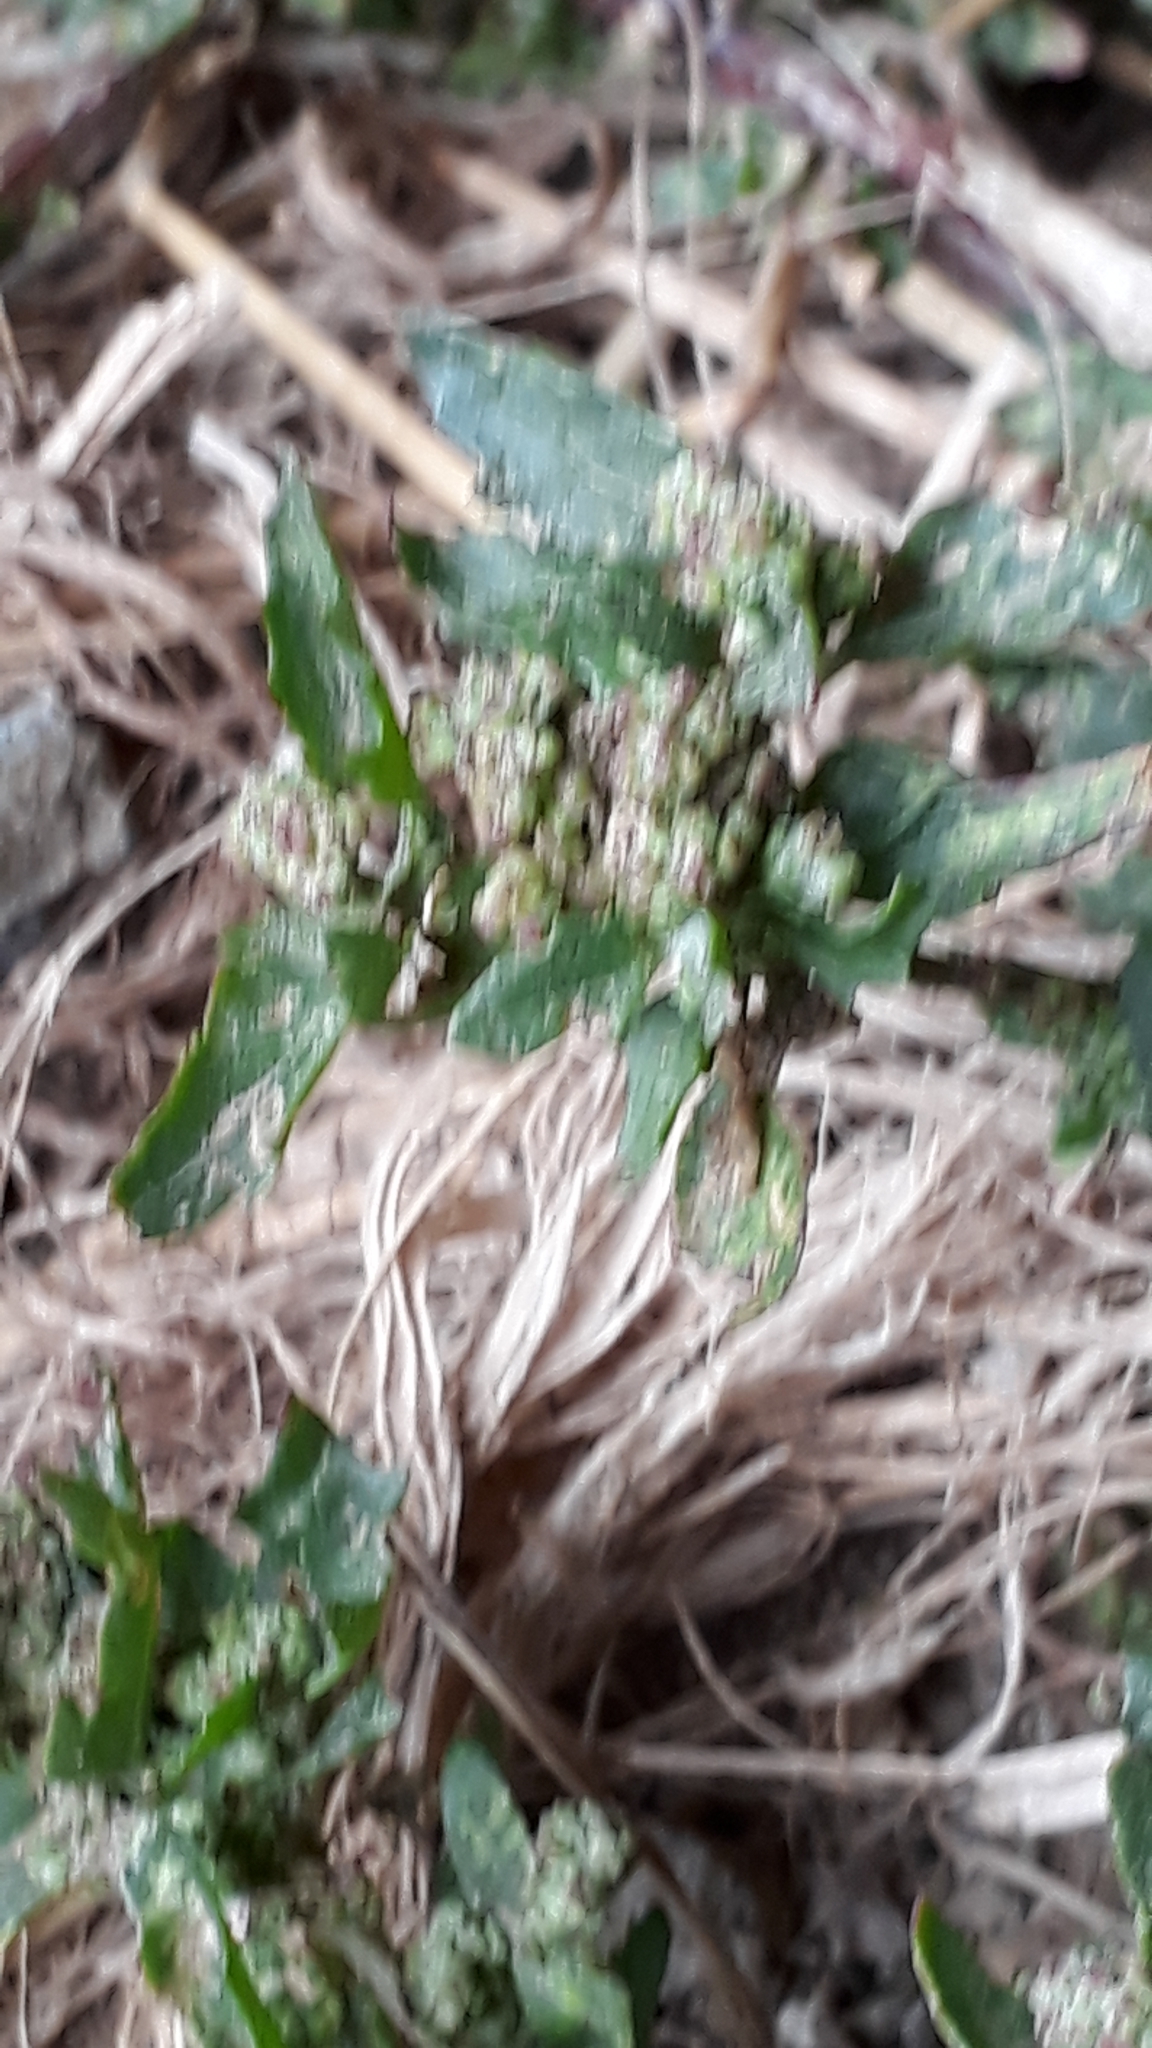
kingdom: Plantae
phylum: Tracheophyta
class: Magnoliopsida
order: Caryophyllales
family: Amaranthaceae
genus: Chenopodium
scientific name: Chenopodium album
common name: Fat-hen
